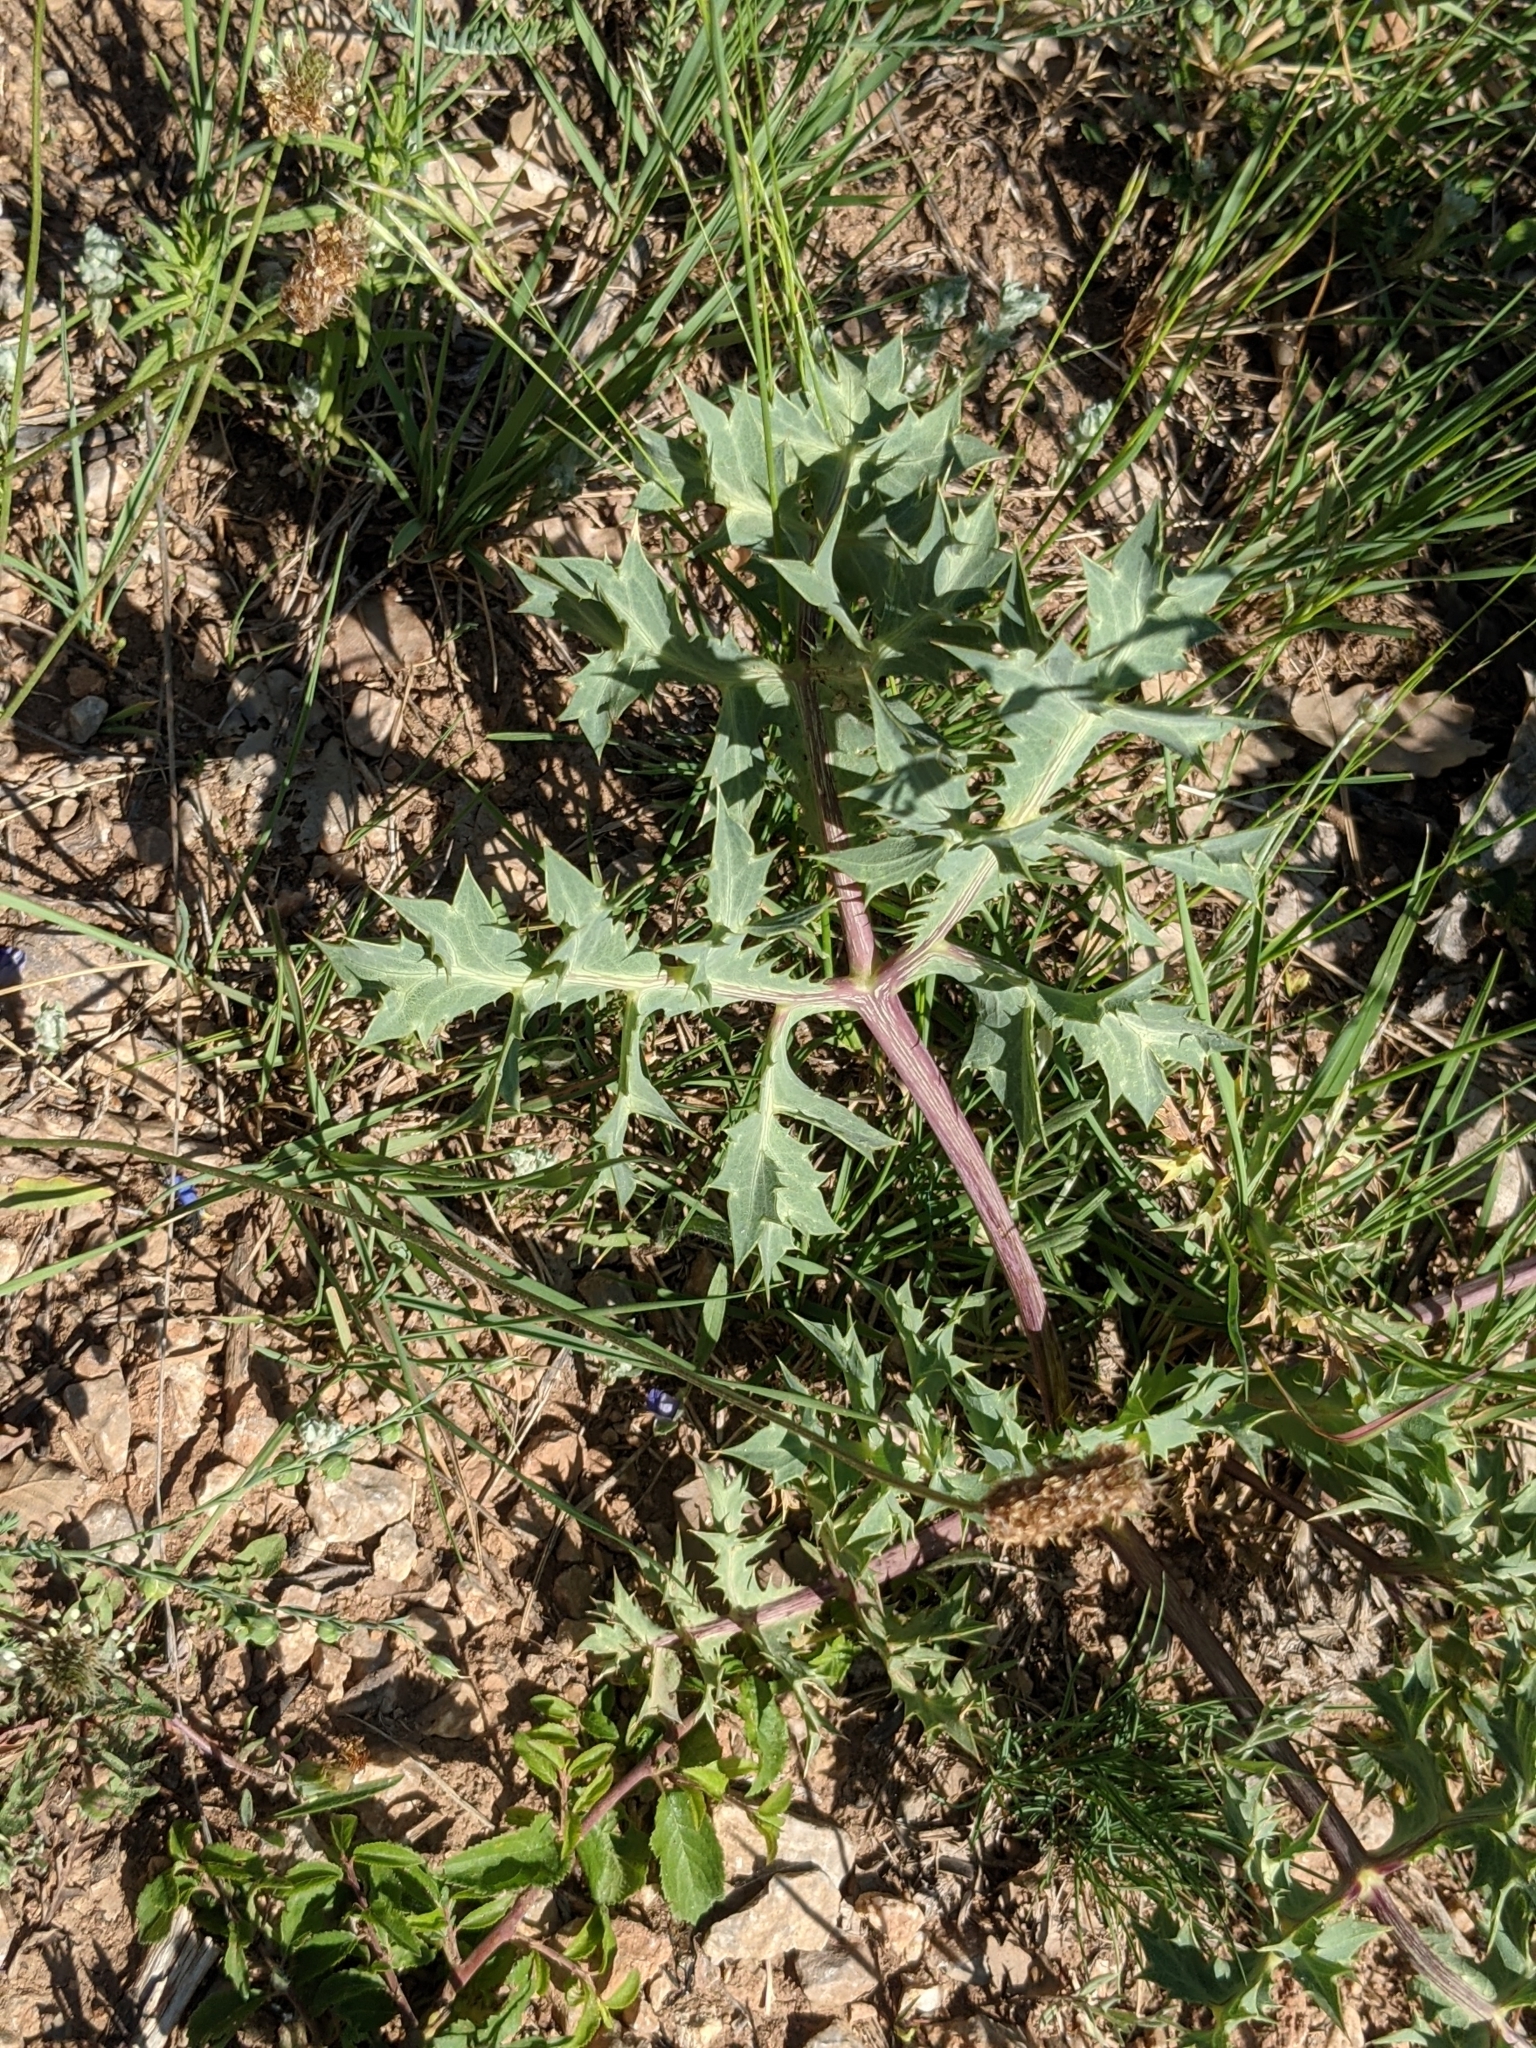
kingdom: Plantae
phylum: Tracheophyta
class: Magnoliopsida
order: Apiales
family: Apiaceae
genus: Eryngium
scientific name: Eryngium campestre
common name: Field eryngo
